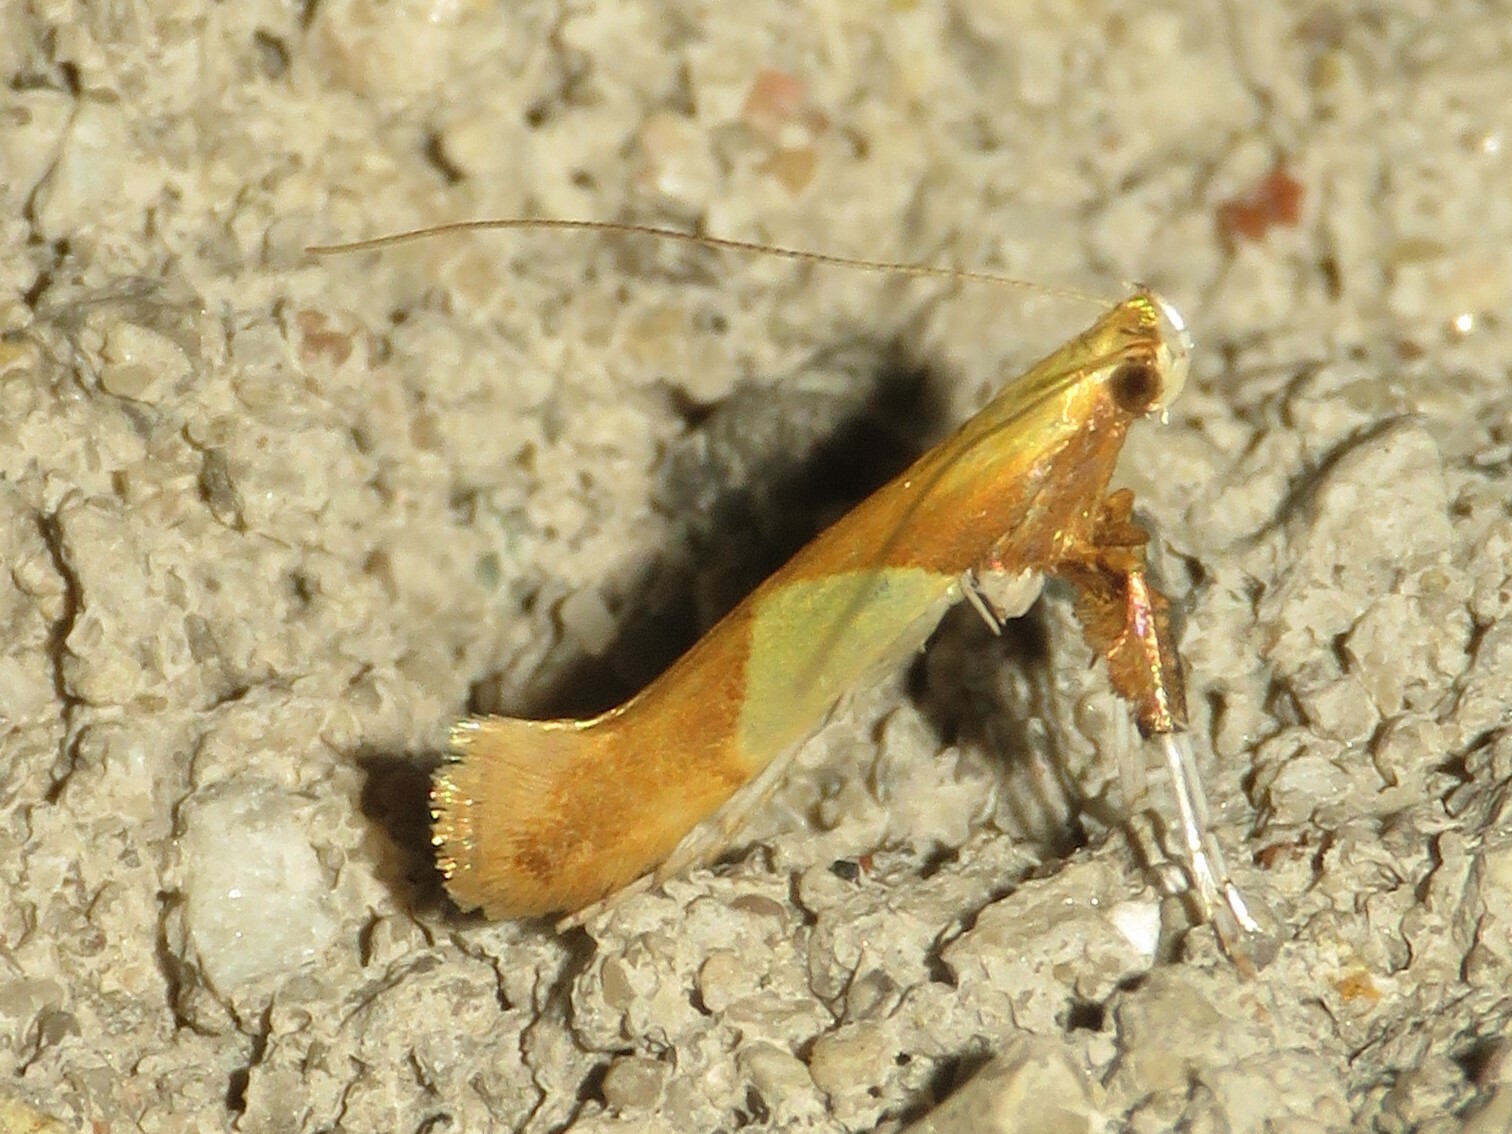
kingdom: Animalia
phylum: Arthropoda
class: Insecta
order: Lepidoptera
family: Gracillariidae
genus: Caloptilia
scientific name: Caloptilia packardella
